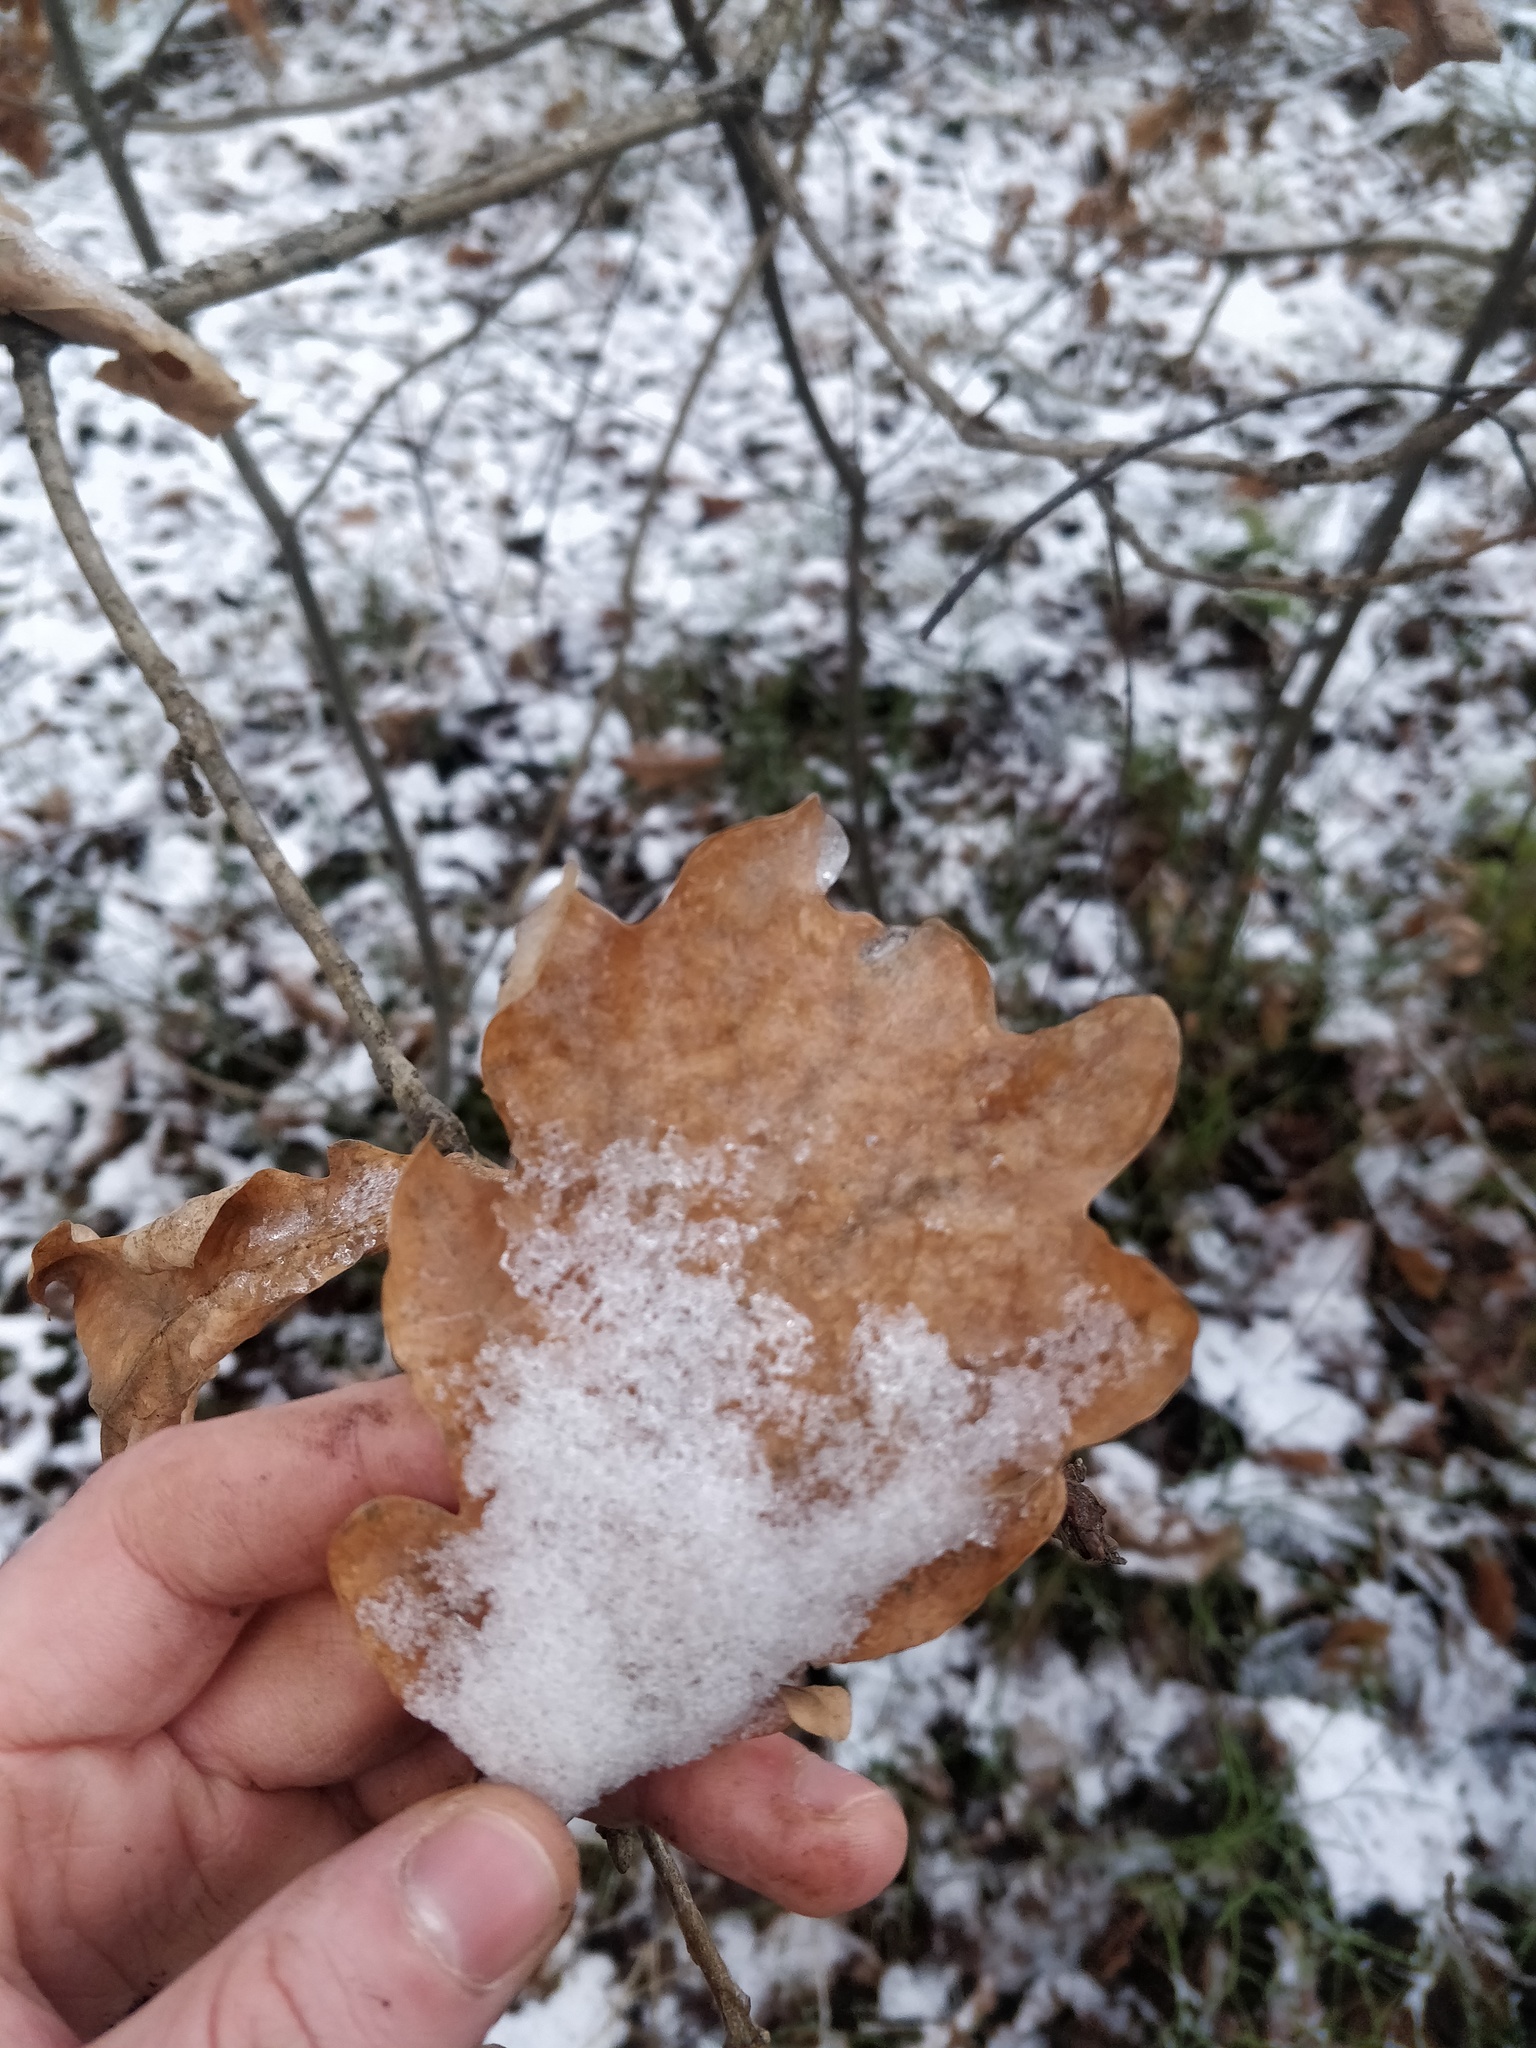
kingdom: Plantae
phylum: Tracheophyta
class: Magnoliopsida
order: Fagales
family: Fagaceae
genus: Quercus
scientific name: Quercus robur
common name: Pedunculate oak
